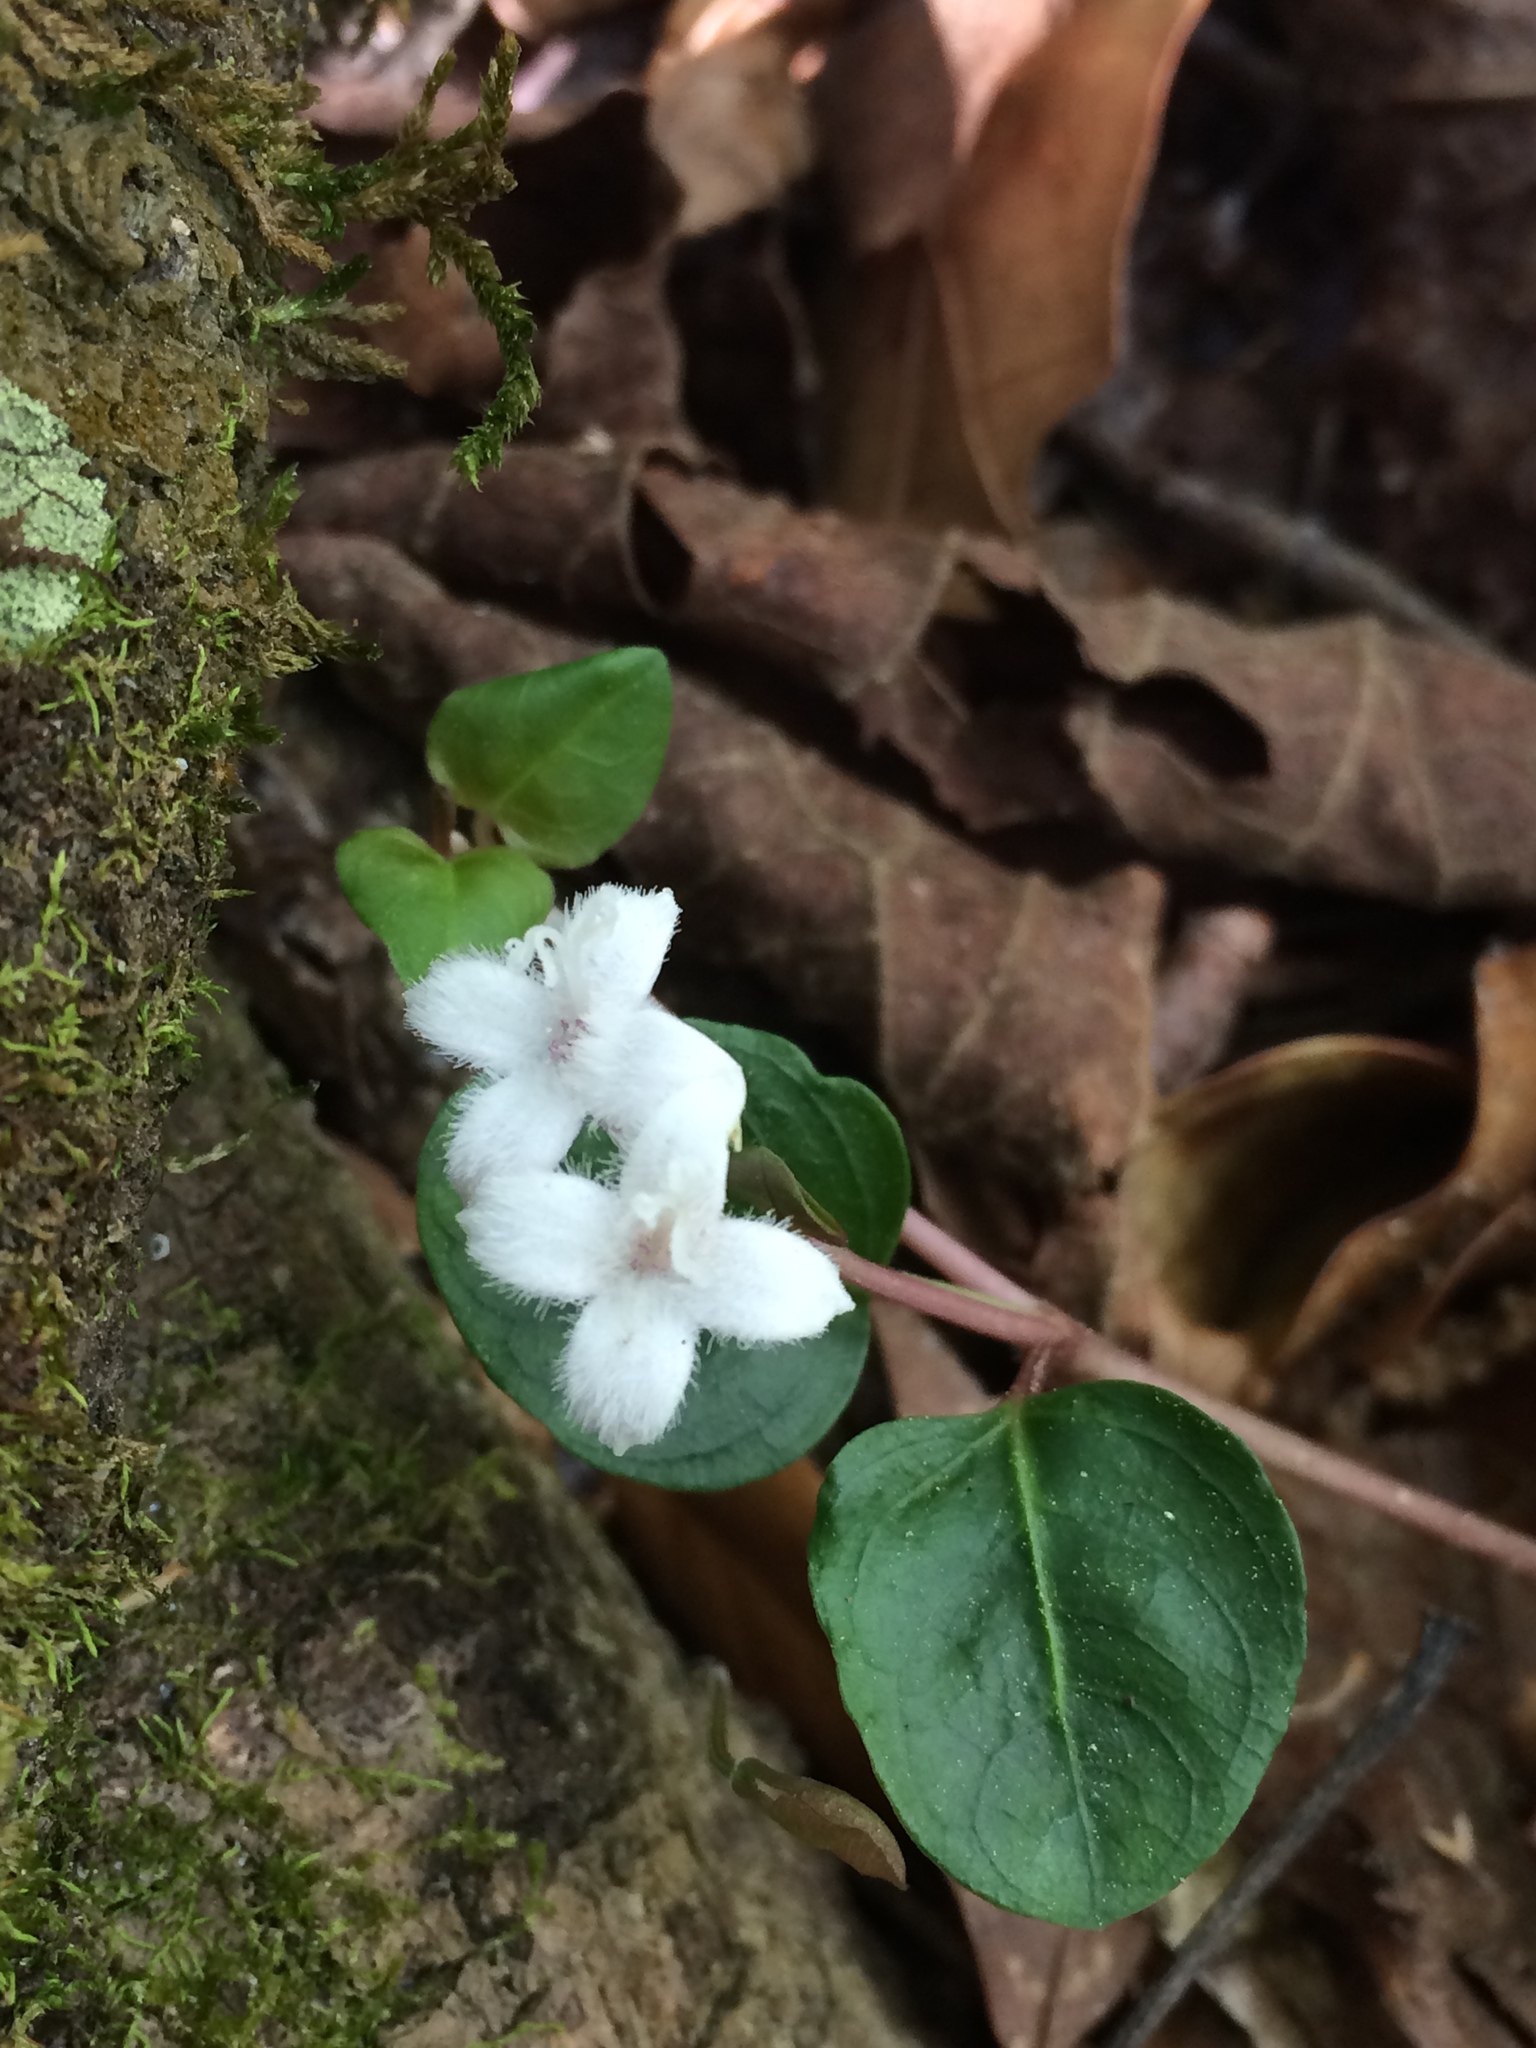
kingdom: Plantae
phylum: Tracheophyta
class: Magnoliopsida
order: Gentianales
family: Rubiaceae
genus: Mitchella
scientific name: Mitchella repens
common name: Partridge-berry
